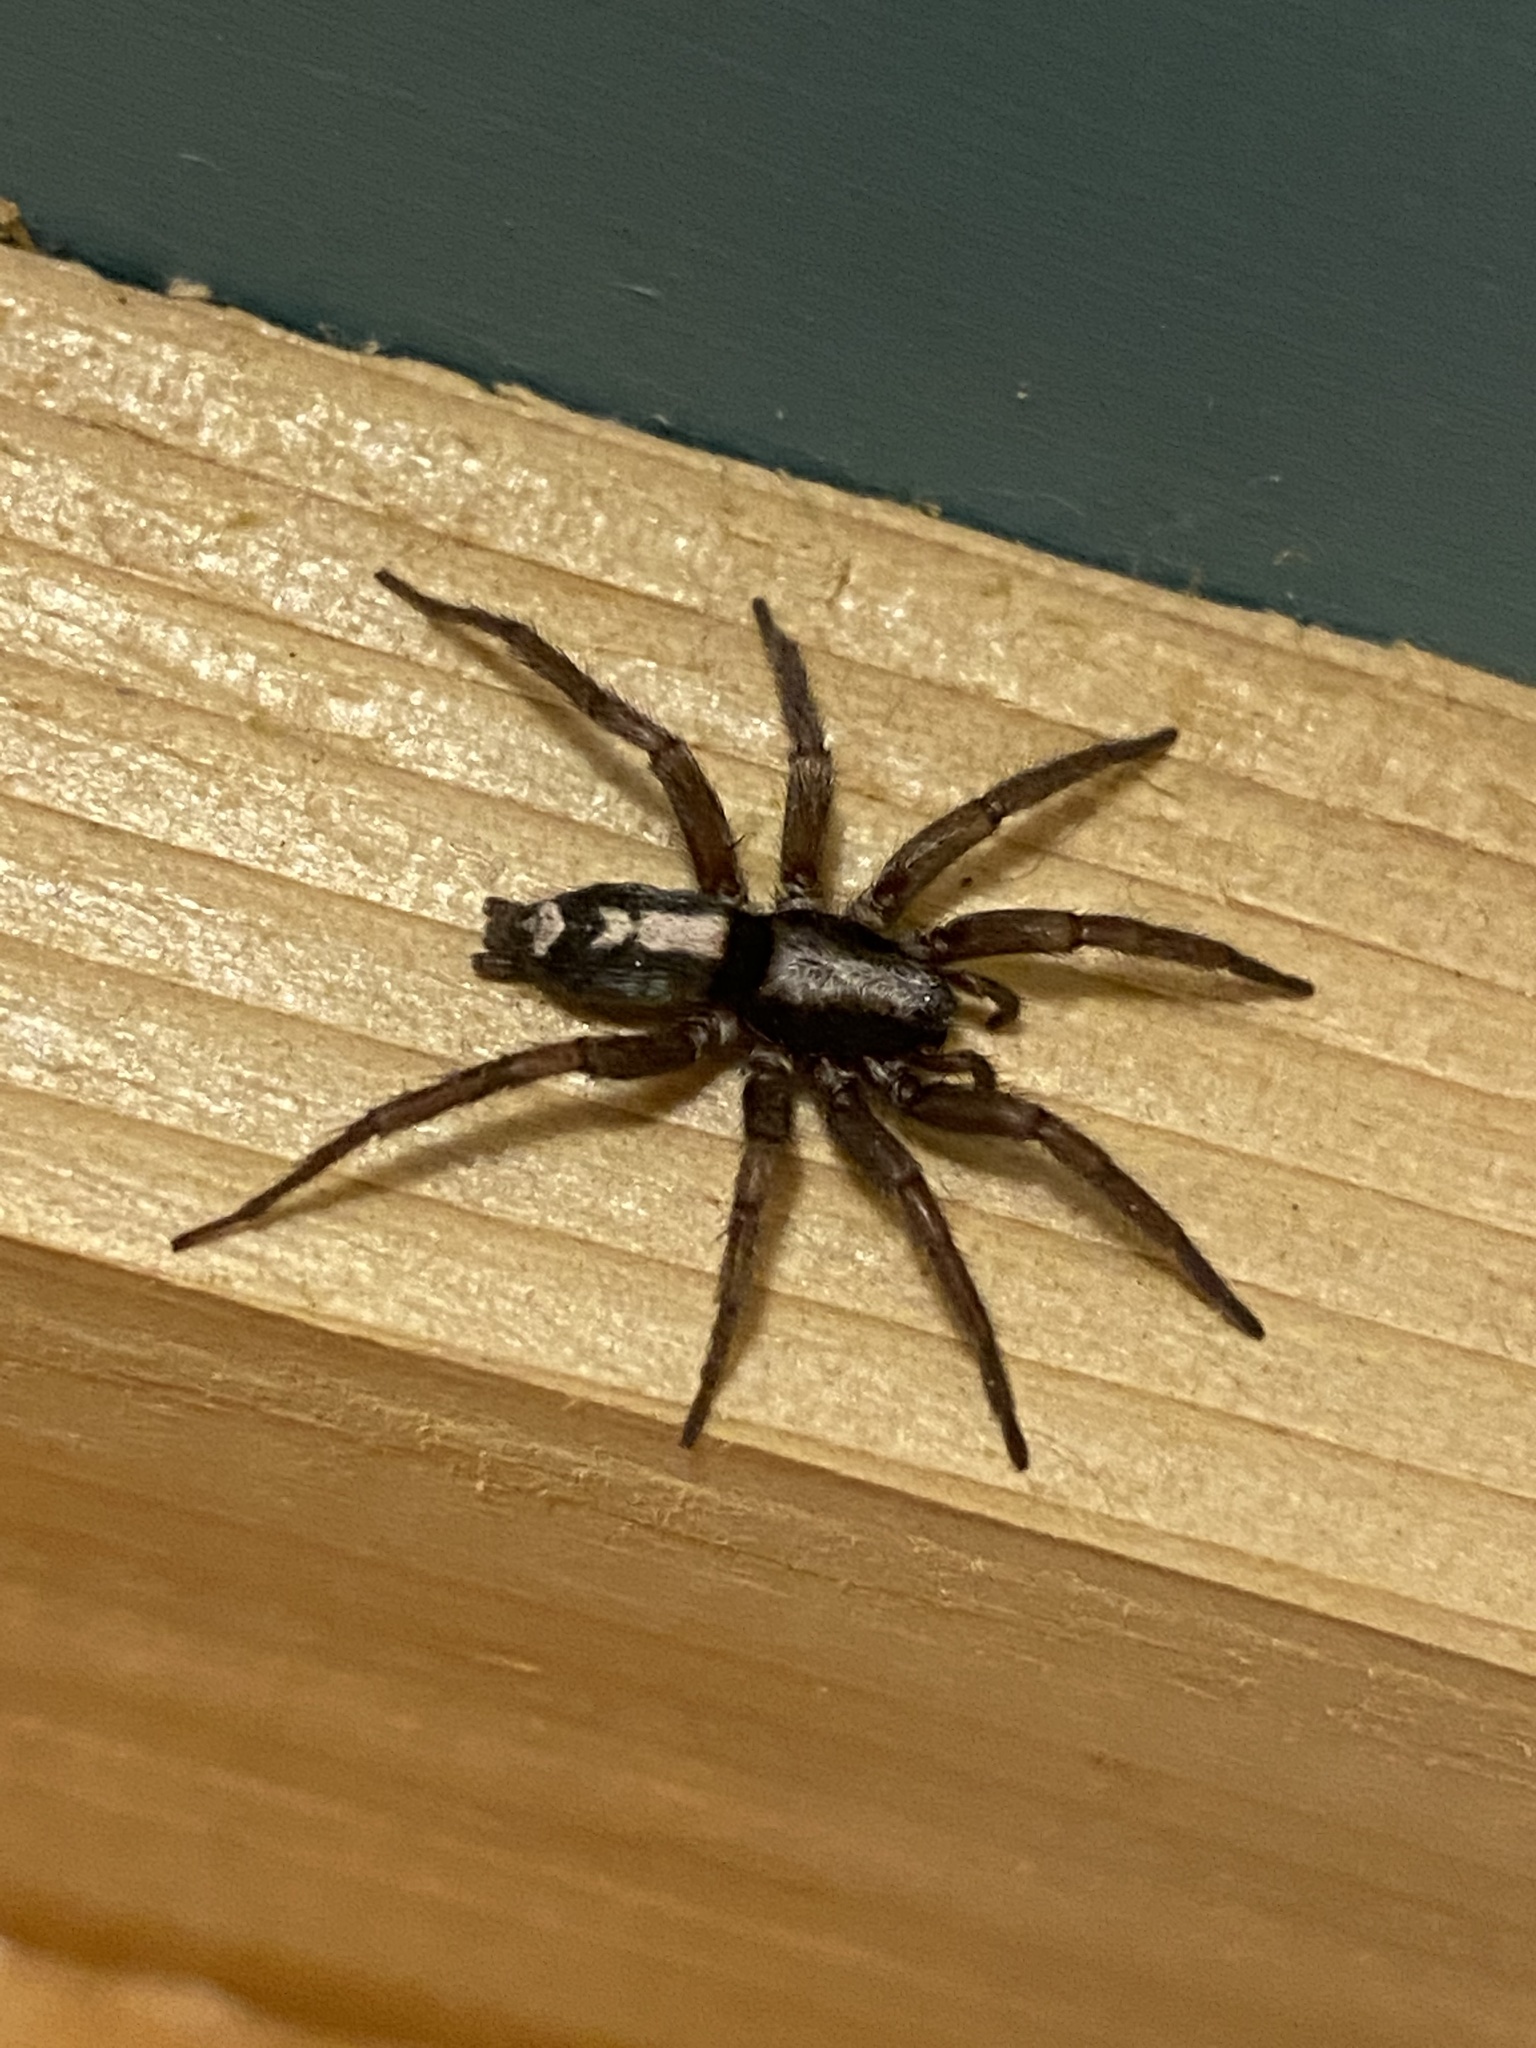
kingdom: Animalia
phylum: Arthropoda
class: Arachnida
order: Araneae
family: Gnaphosidae
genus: Herpyllus
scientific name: Herpyllus ecclesiasticus
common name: Eastern parson spider
